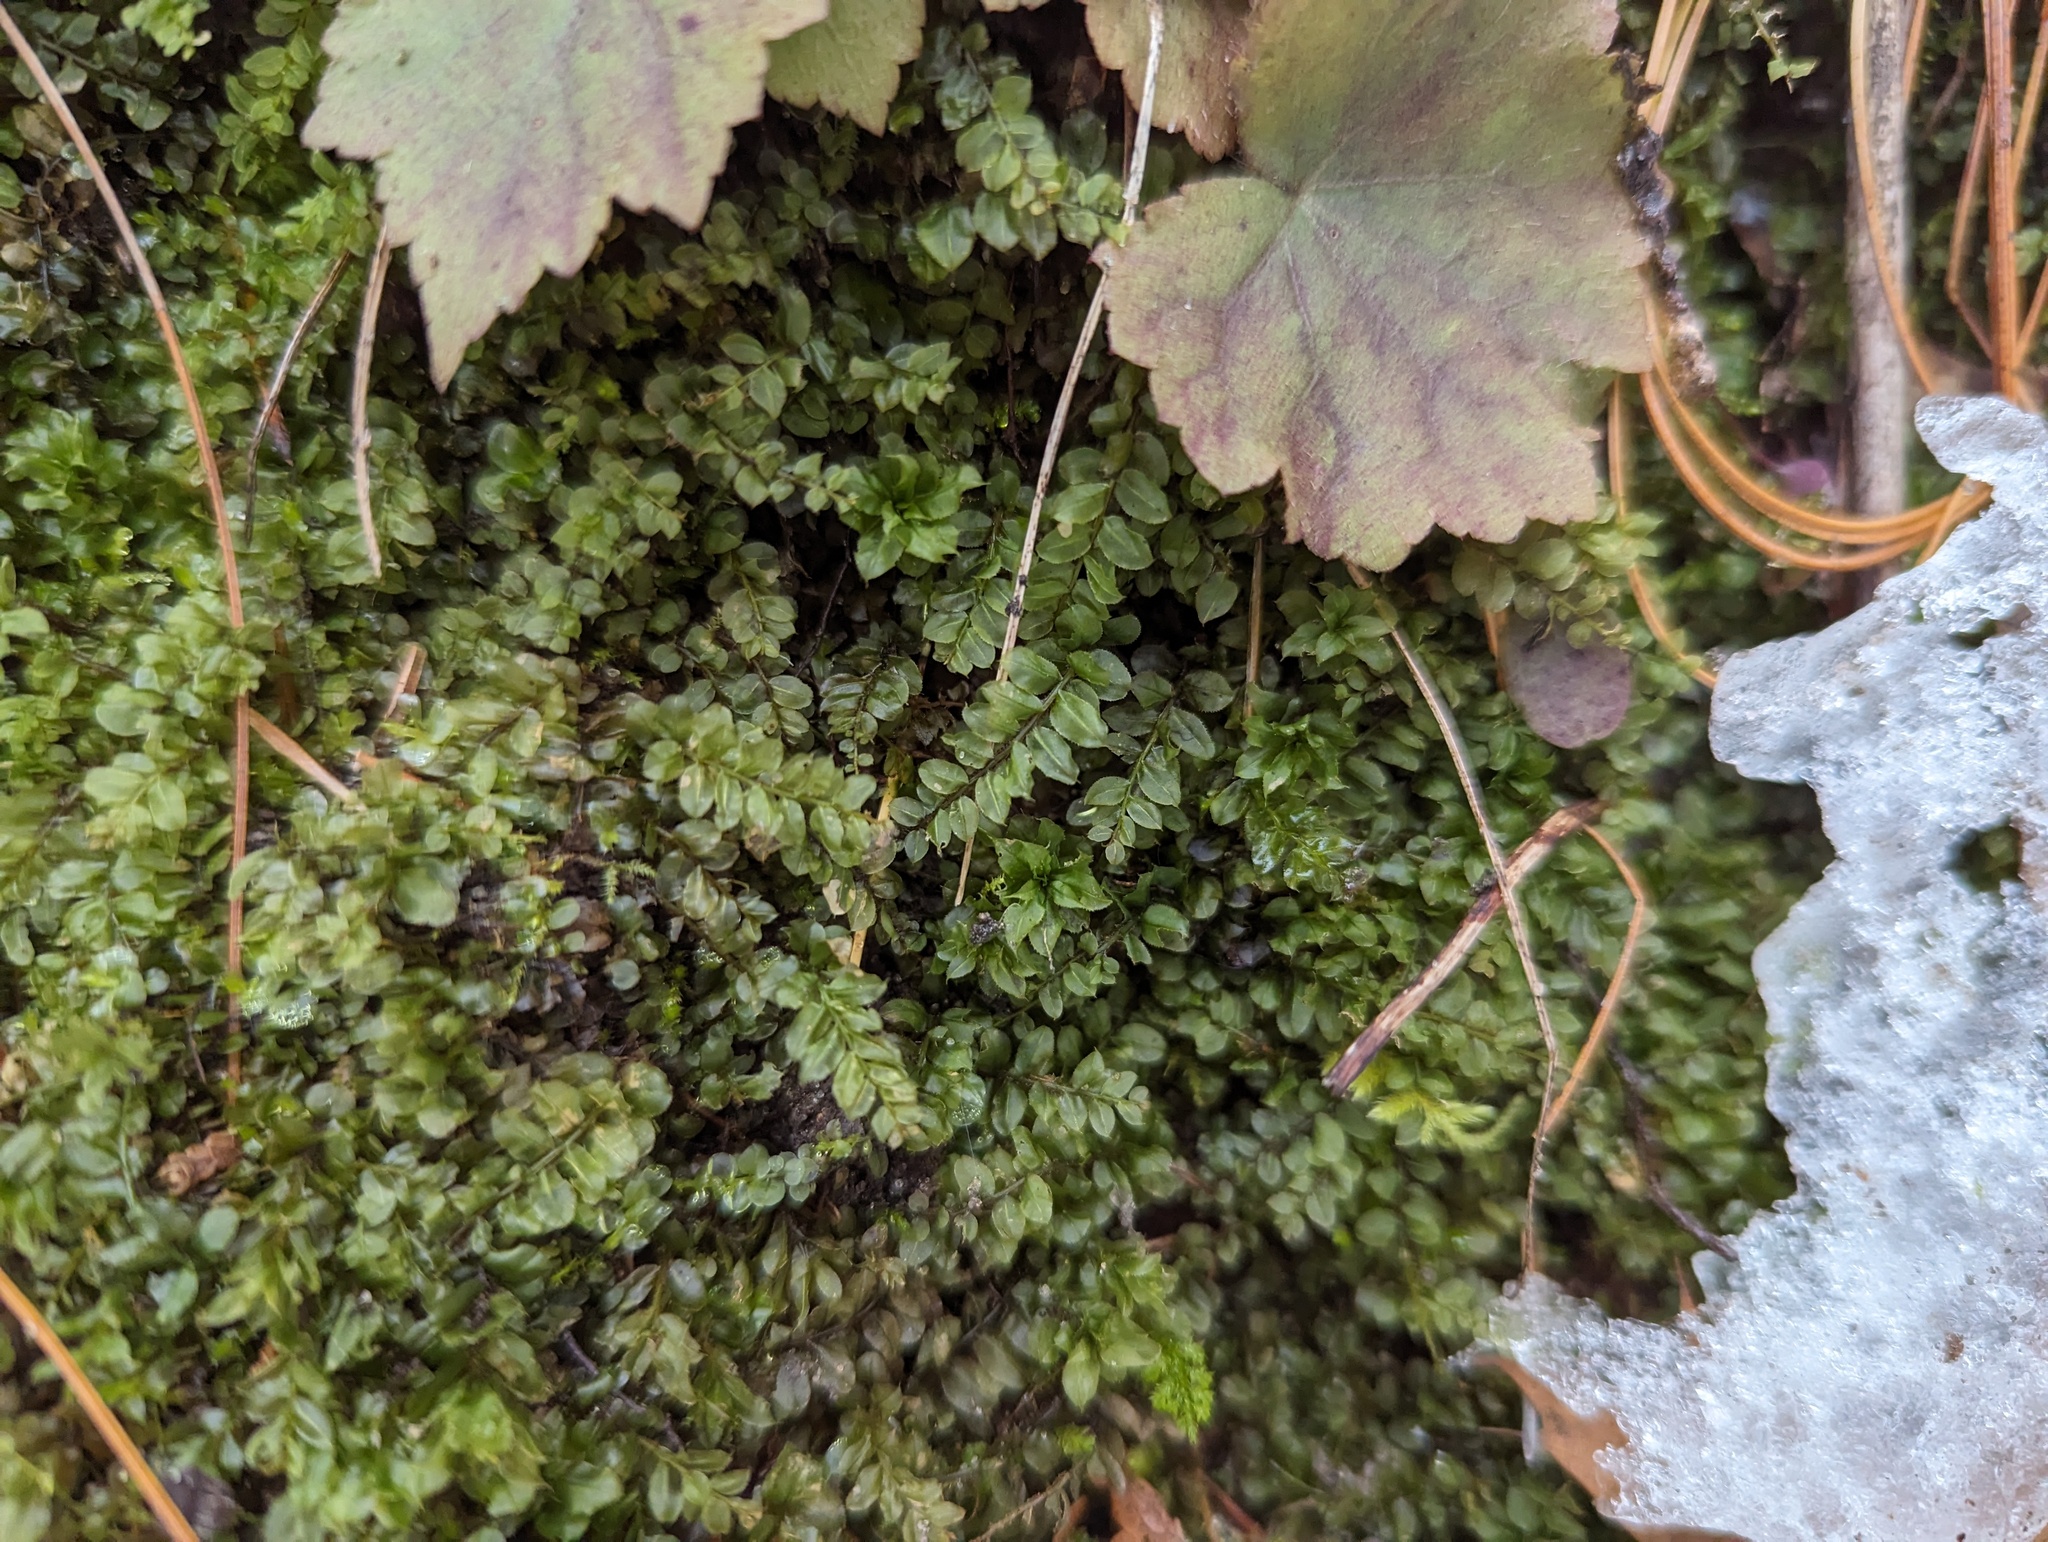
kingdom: Plantae
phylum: Bryophyta
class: Bryopsida
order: Bryales
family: Mniaceae
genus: Plagiomnium
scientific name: Plagiomnium ciliare
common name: Toothed leafy moss
